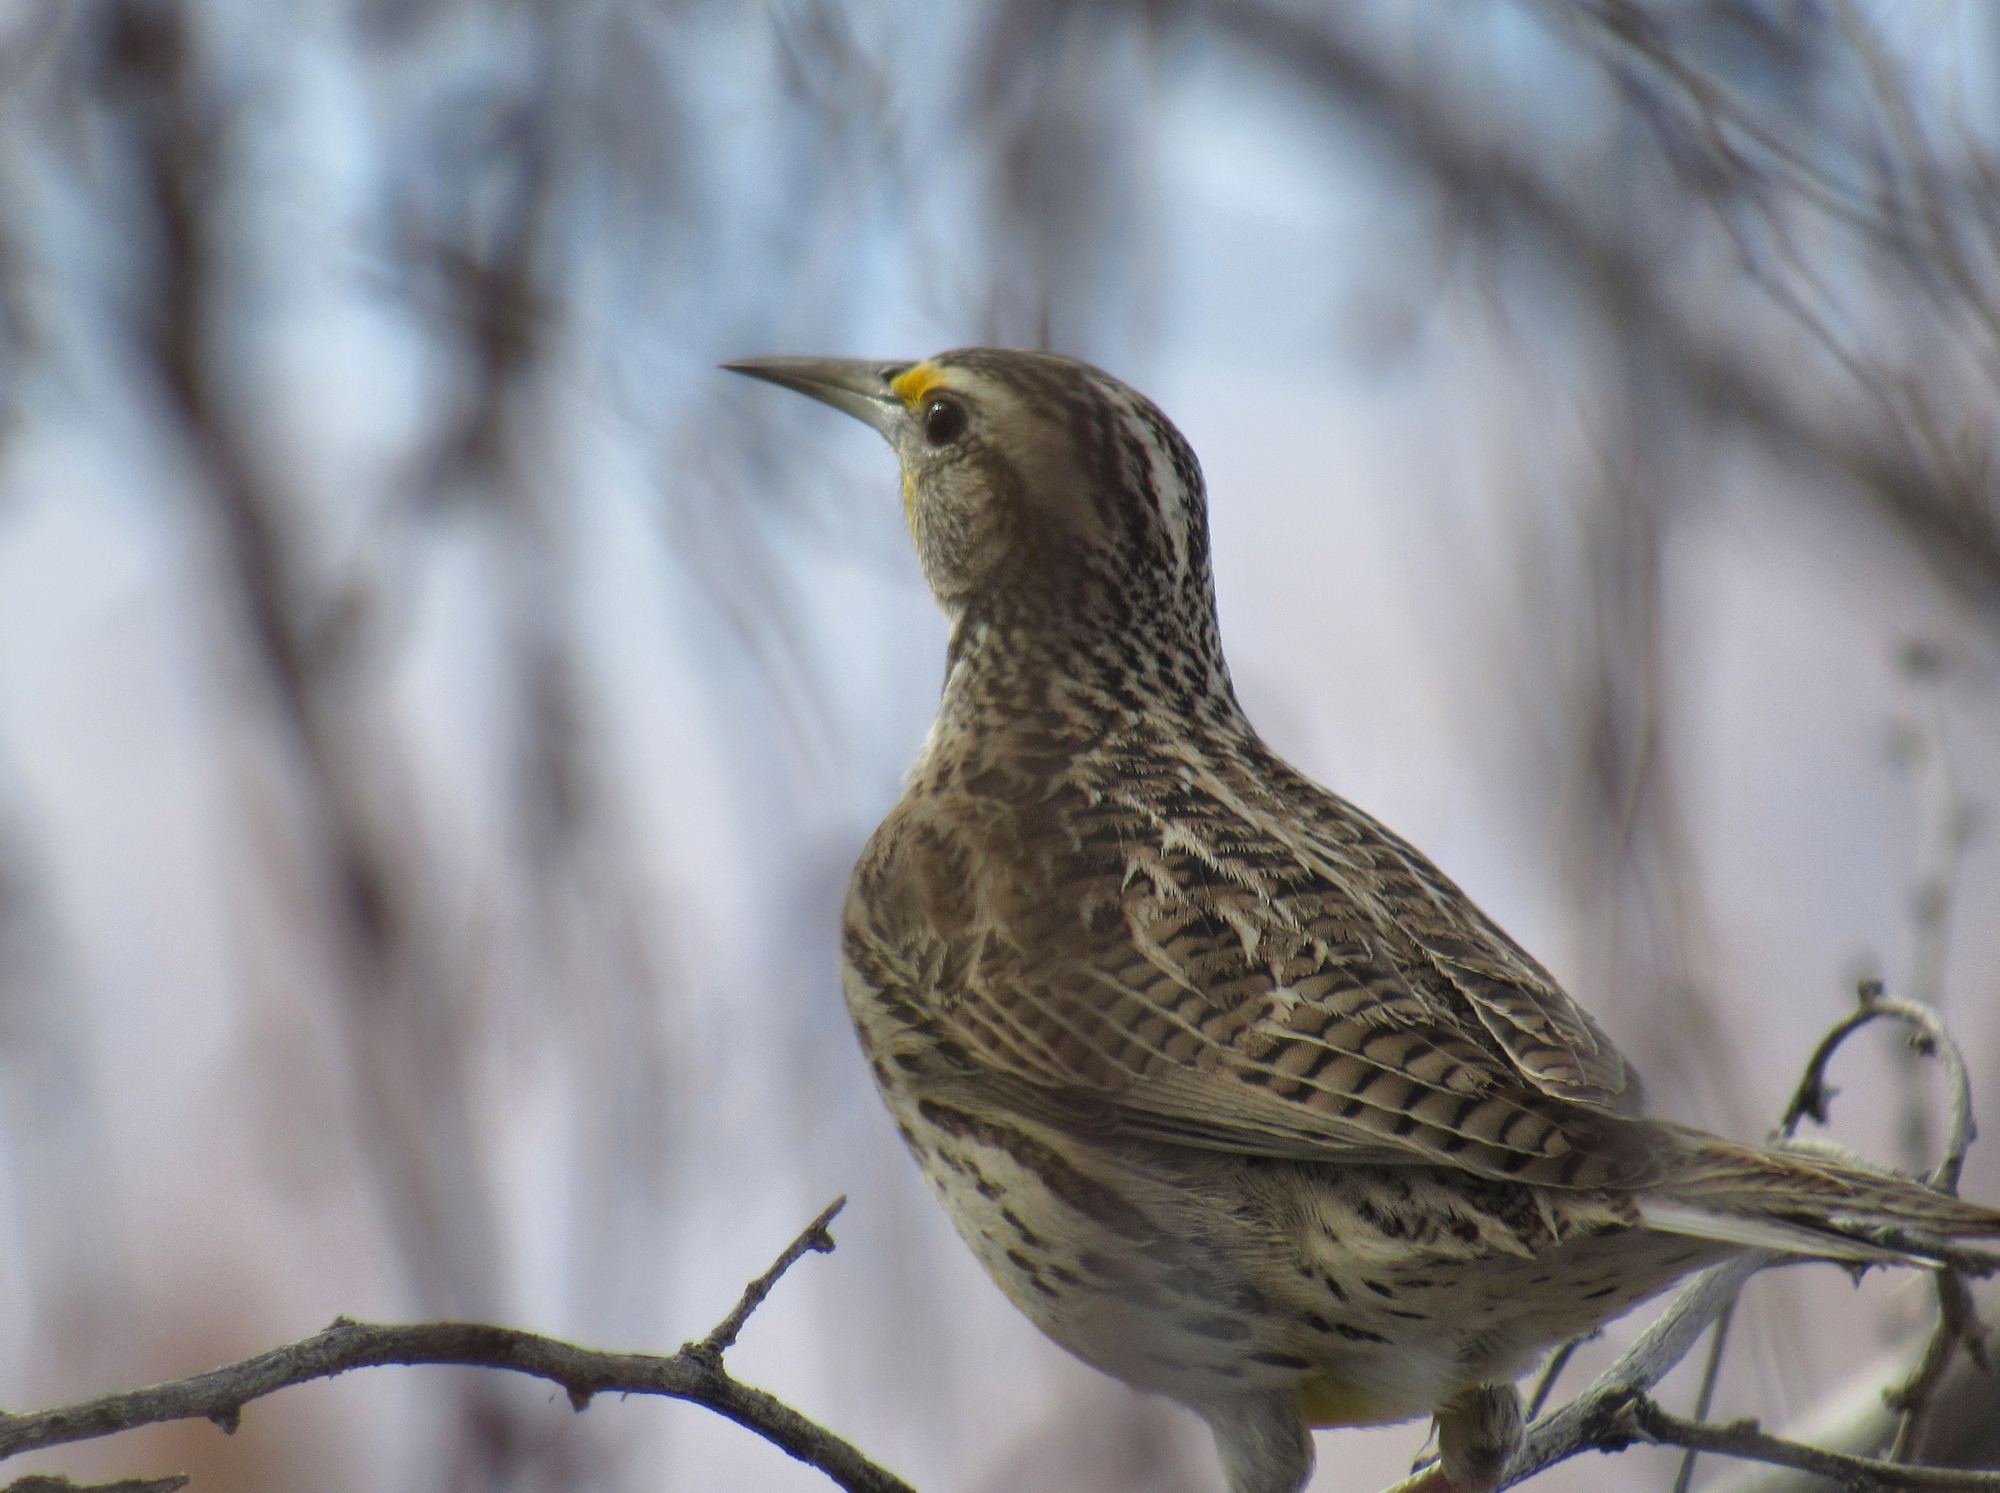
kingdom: Animalia
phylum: Chordata
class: Aves
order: Passeriformes
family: Icteridae
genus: Sturnella
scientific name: Sturnella neglecta
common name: Western meadowlark
